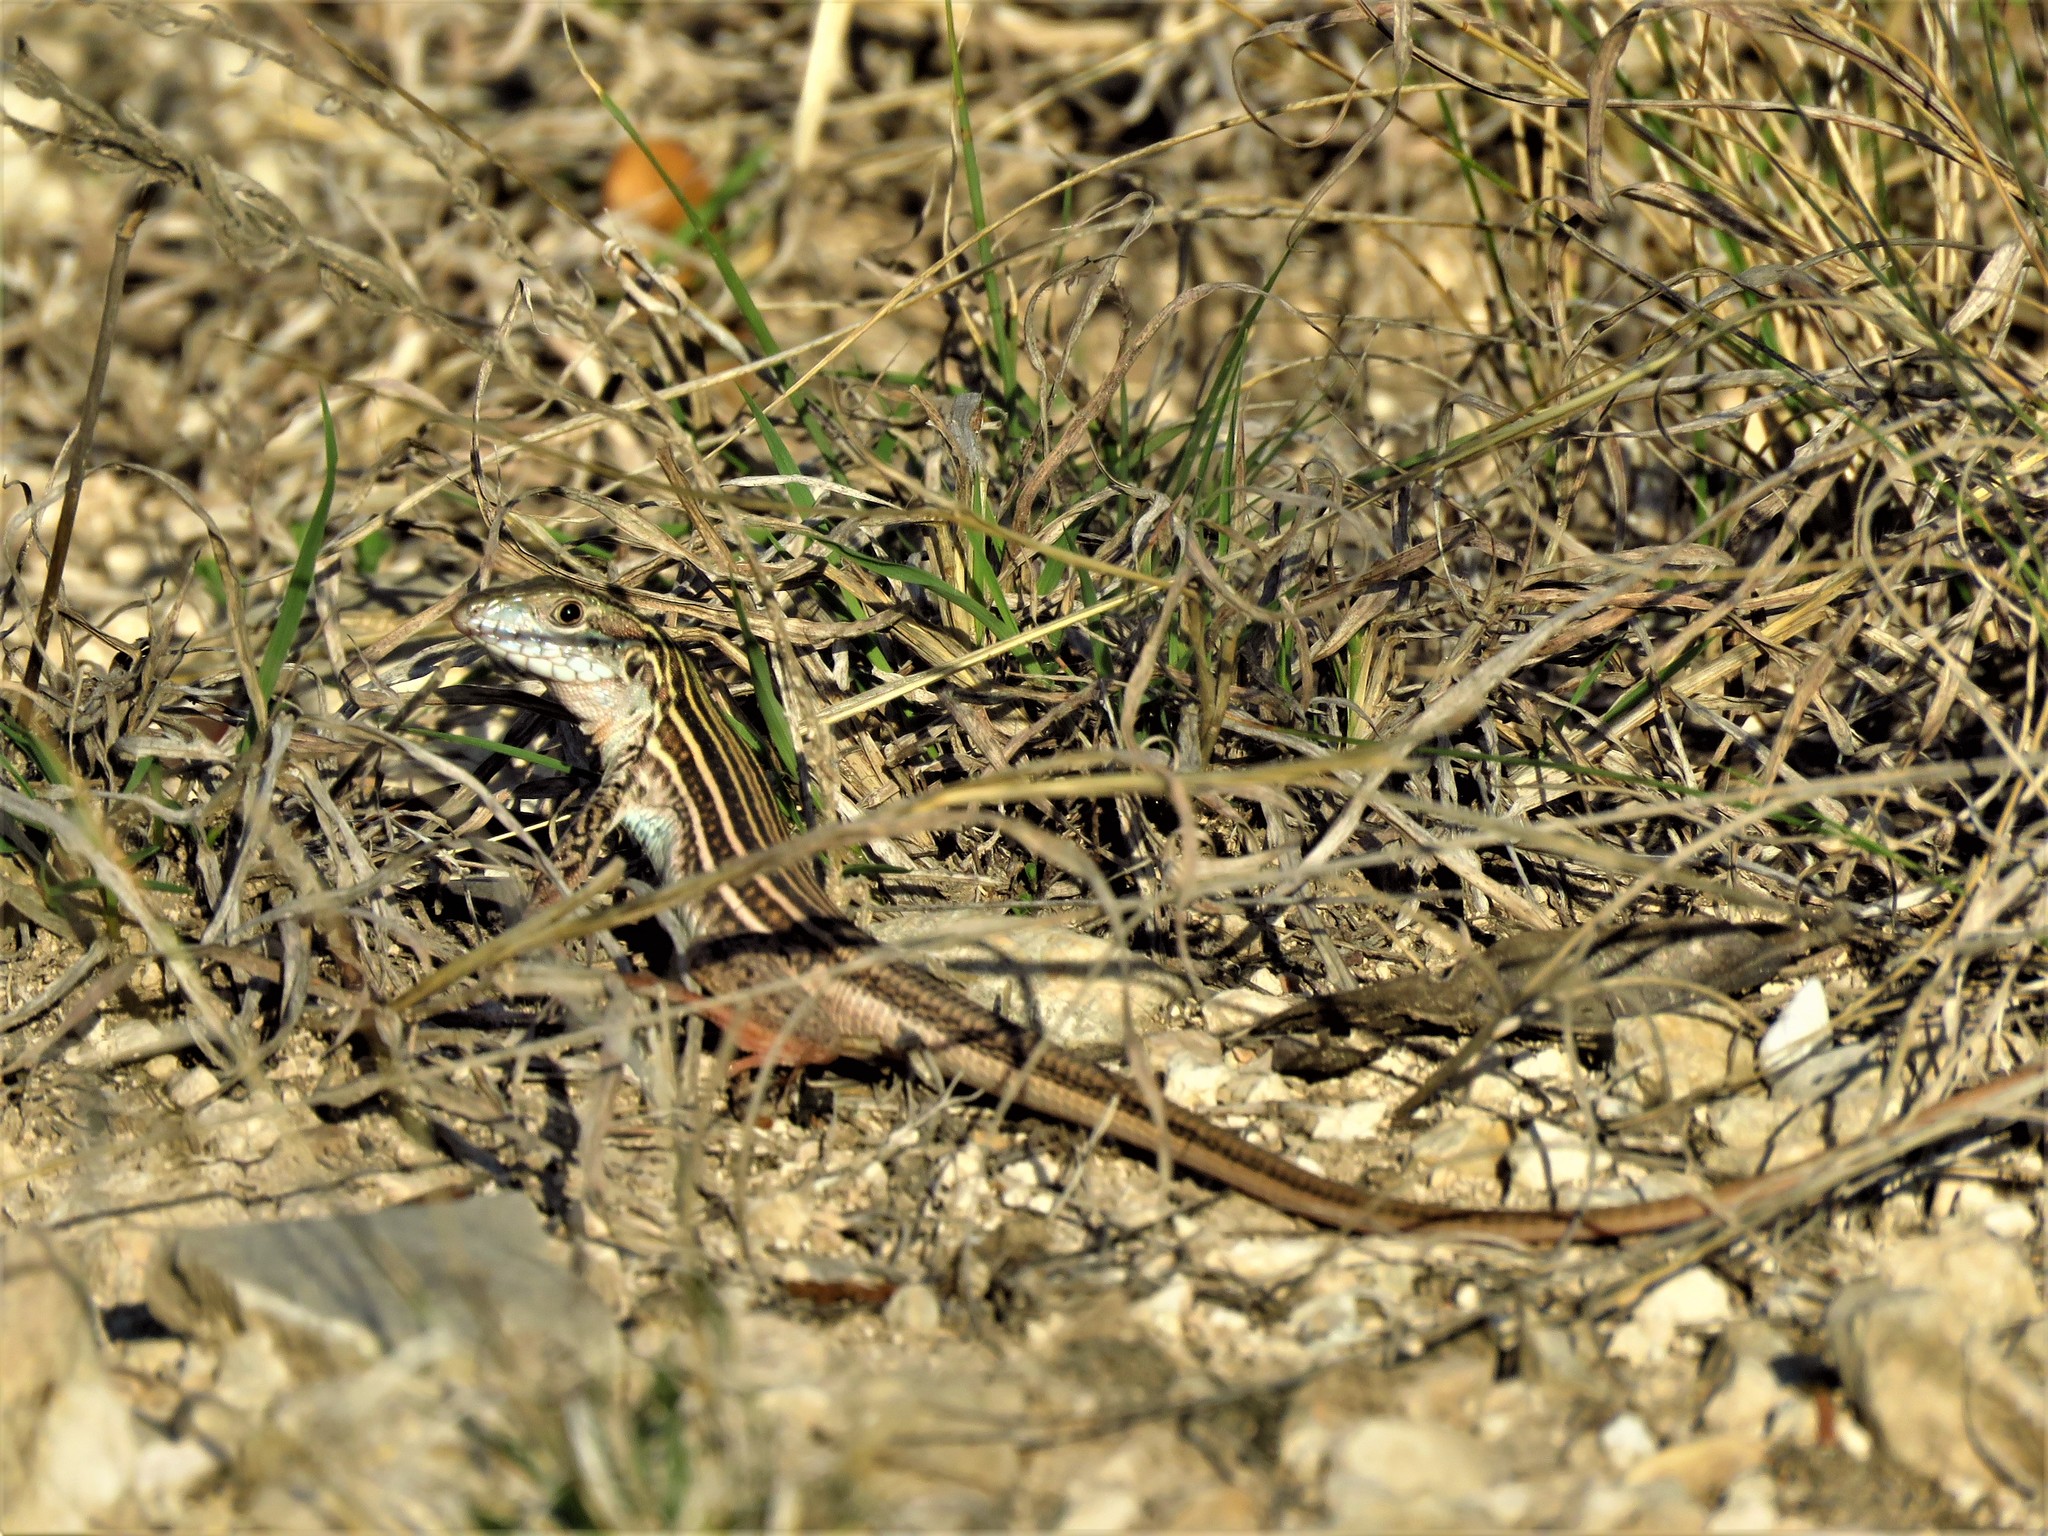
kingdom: Animalia
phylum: Chordata
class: Squamata
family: Teiidae
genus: Aspidoscelis
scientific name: Aspidoscelis gularis
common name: Eastern spotted whiptail
